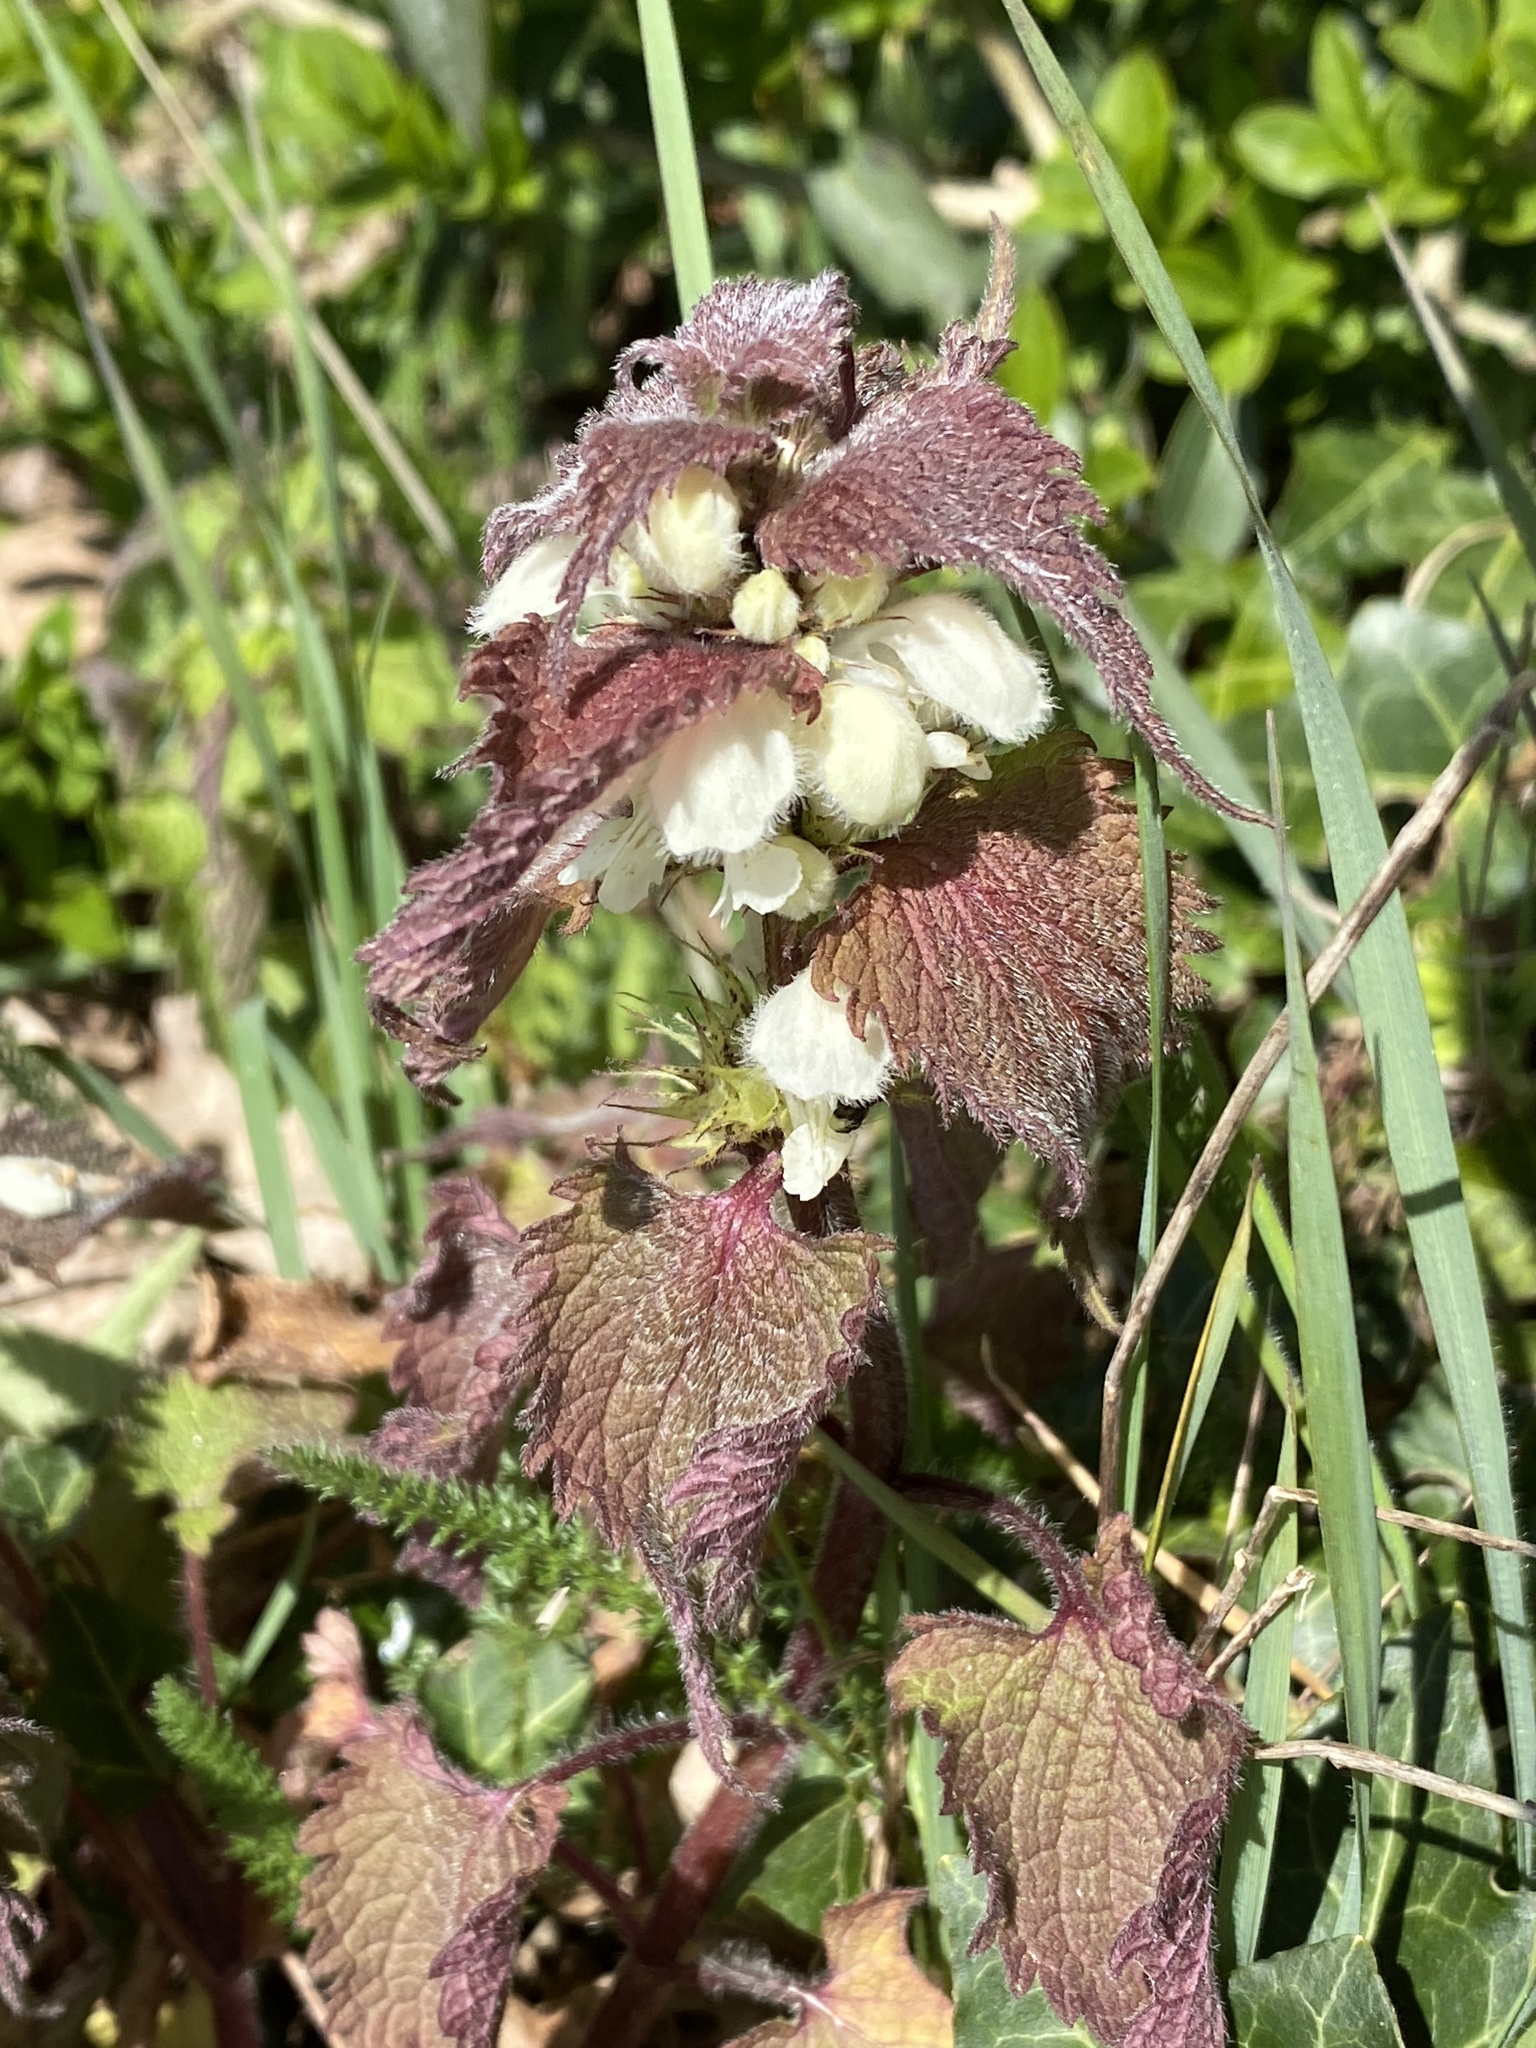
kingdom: Plantae
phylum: Tracheophyta
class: Magnoliopsida
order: Lamiales
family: Lamiaceae
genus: Lamium
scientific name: Lamium album
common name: White dead-nettle
